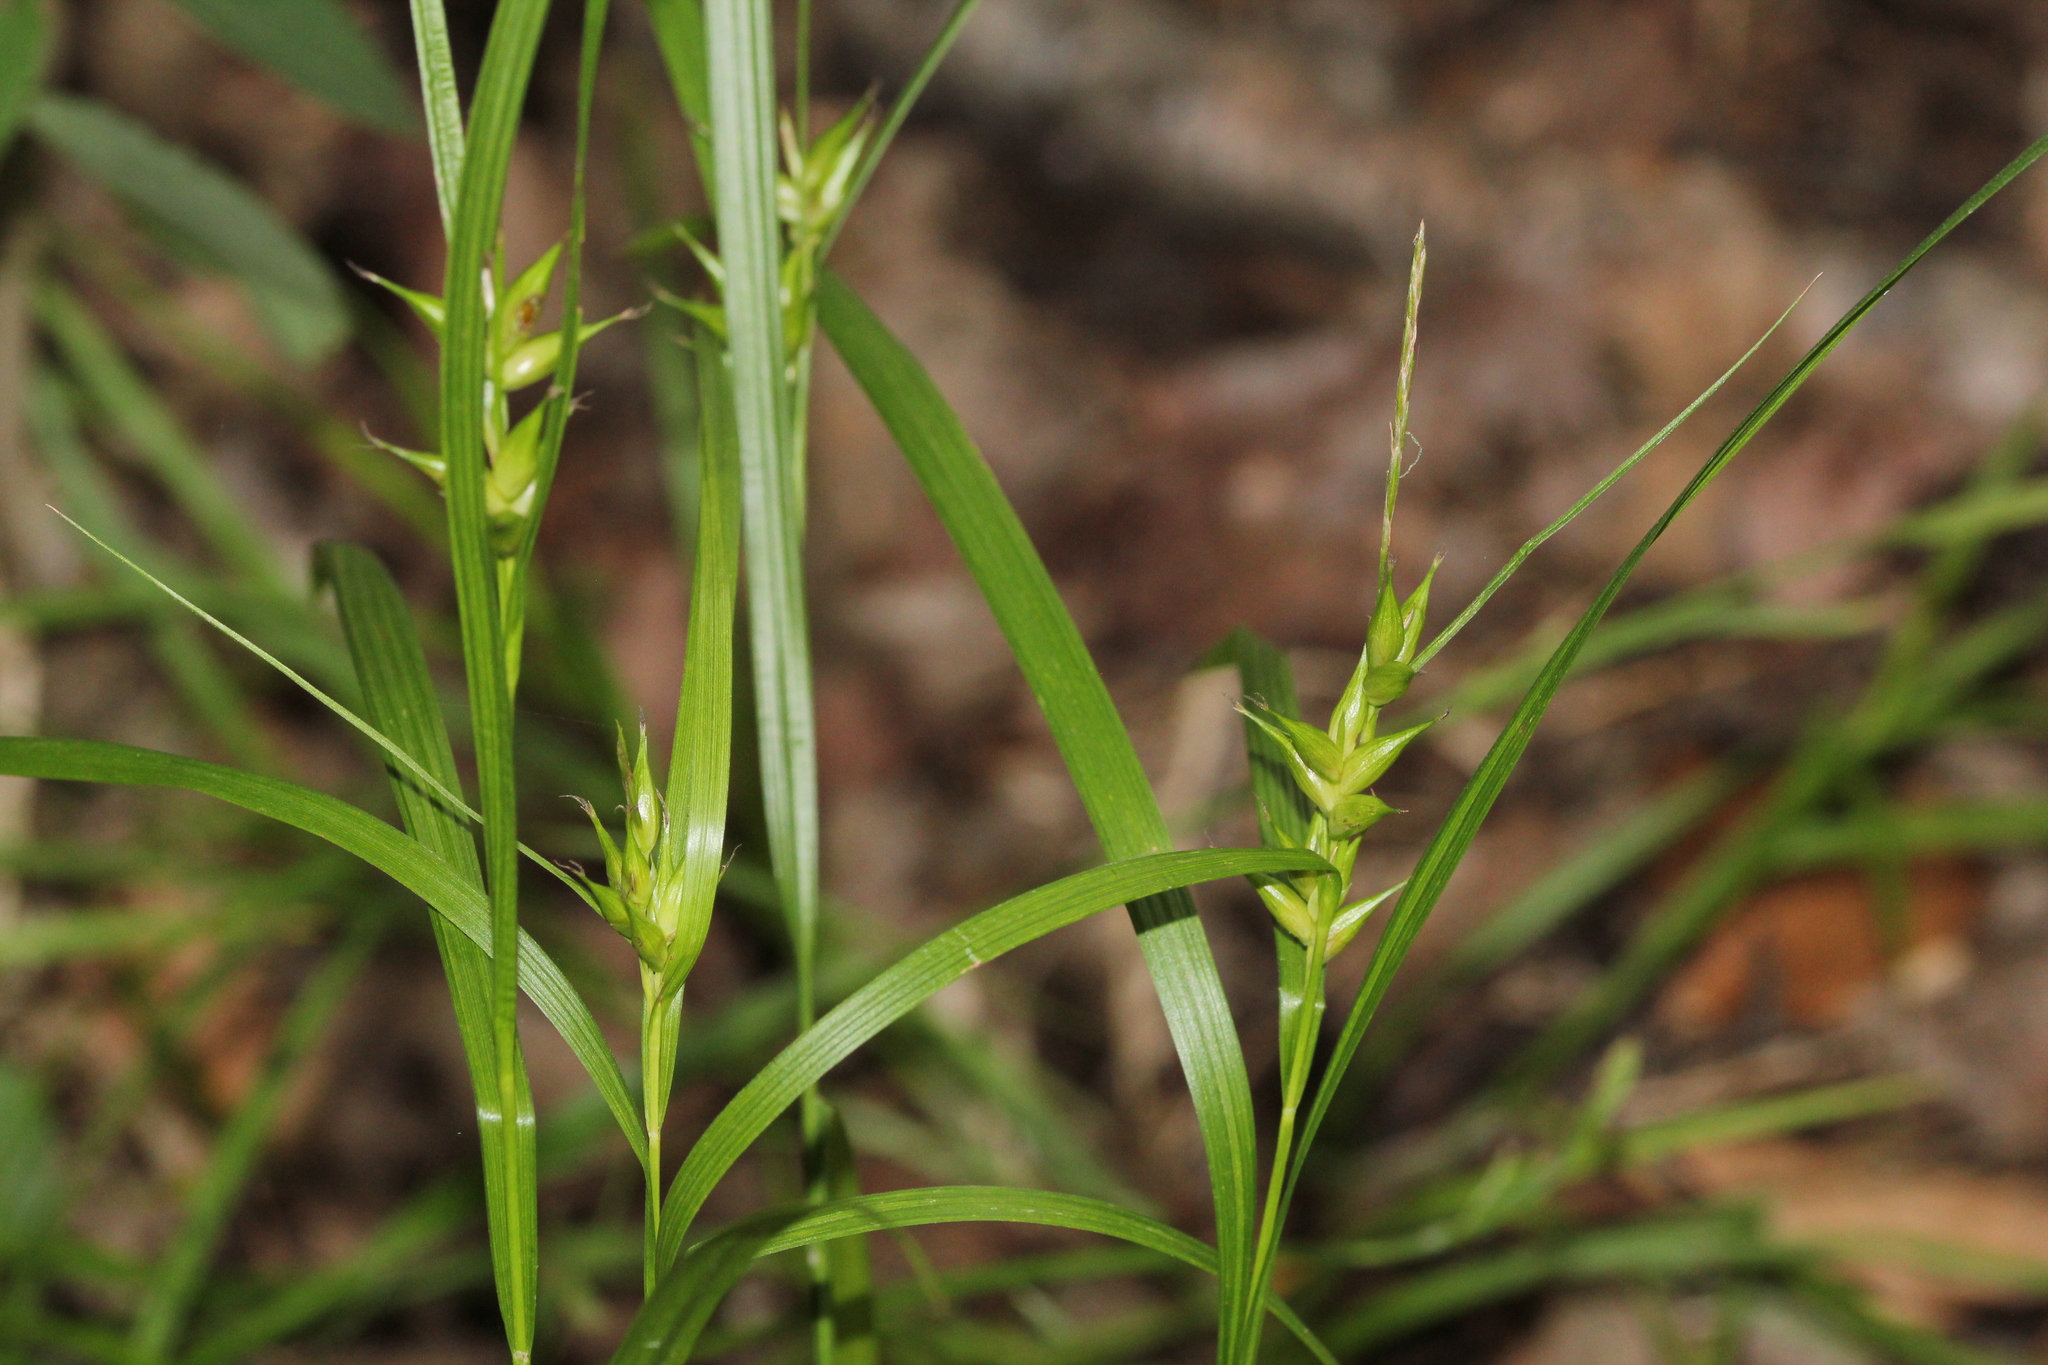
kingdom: Plantae
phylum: Tracheophyta
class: Liliopsida
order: Poales
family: Cyperaceae
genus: Carex
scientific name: Carex intumescens
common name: Greater bladder sedge
